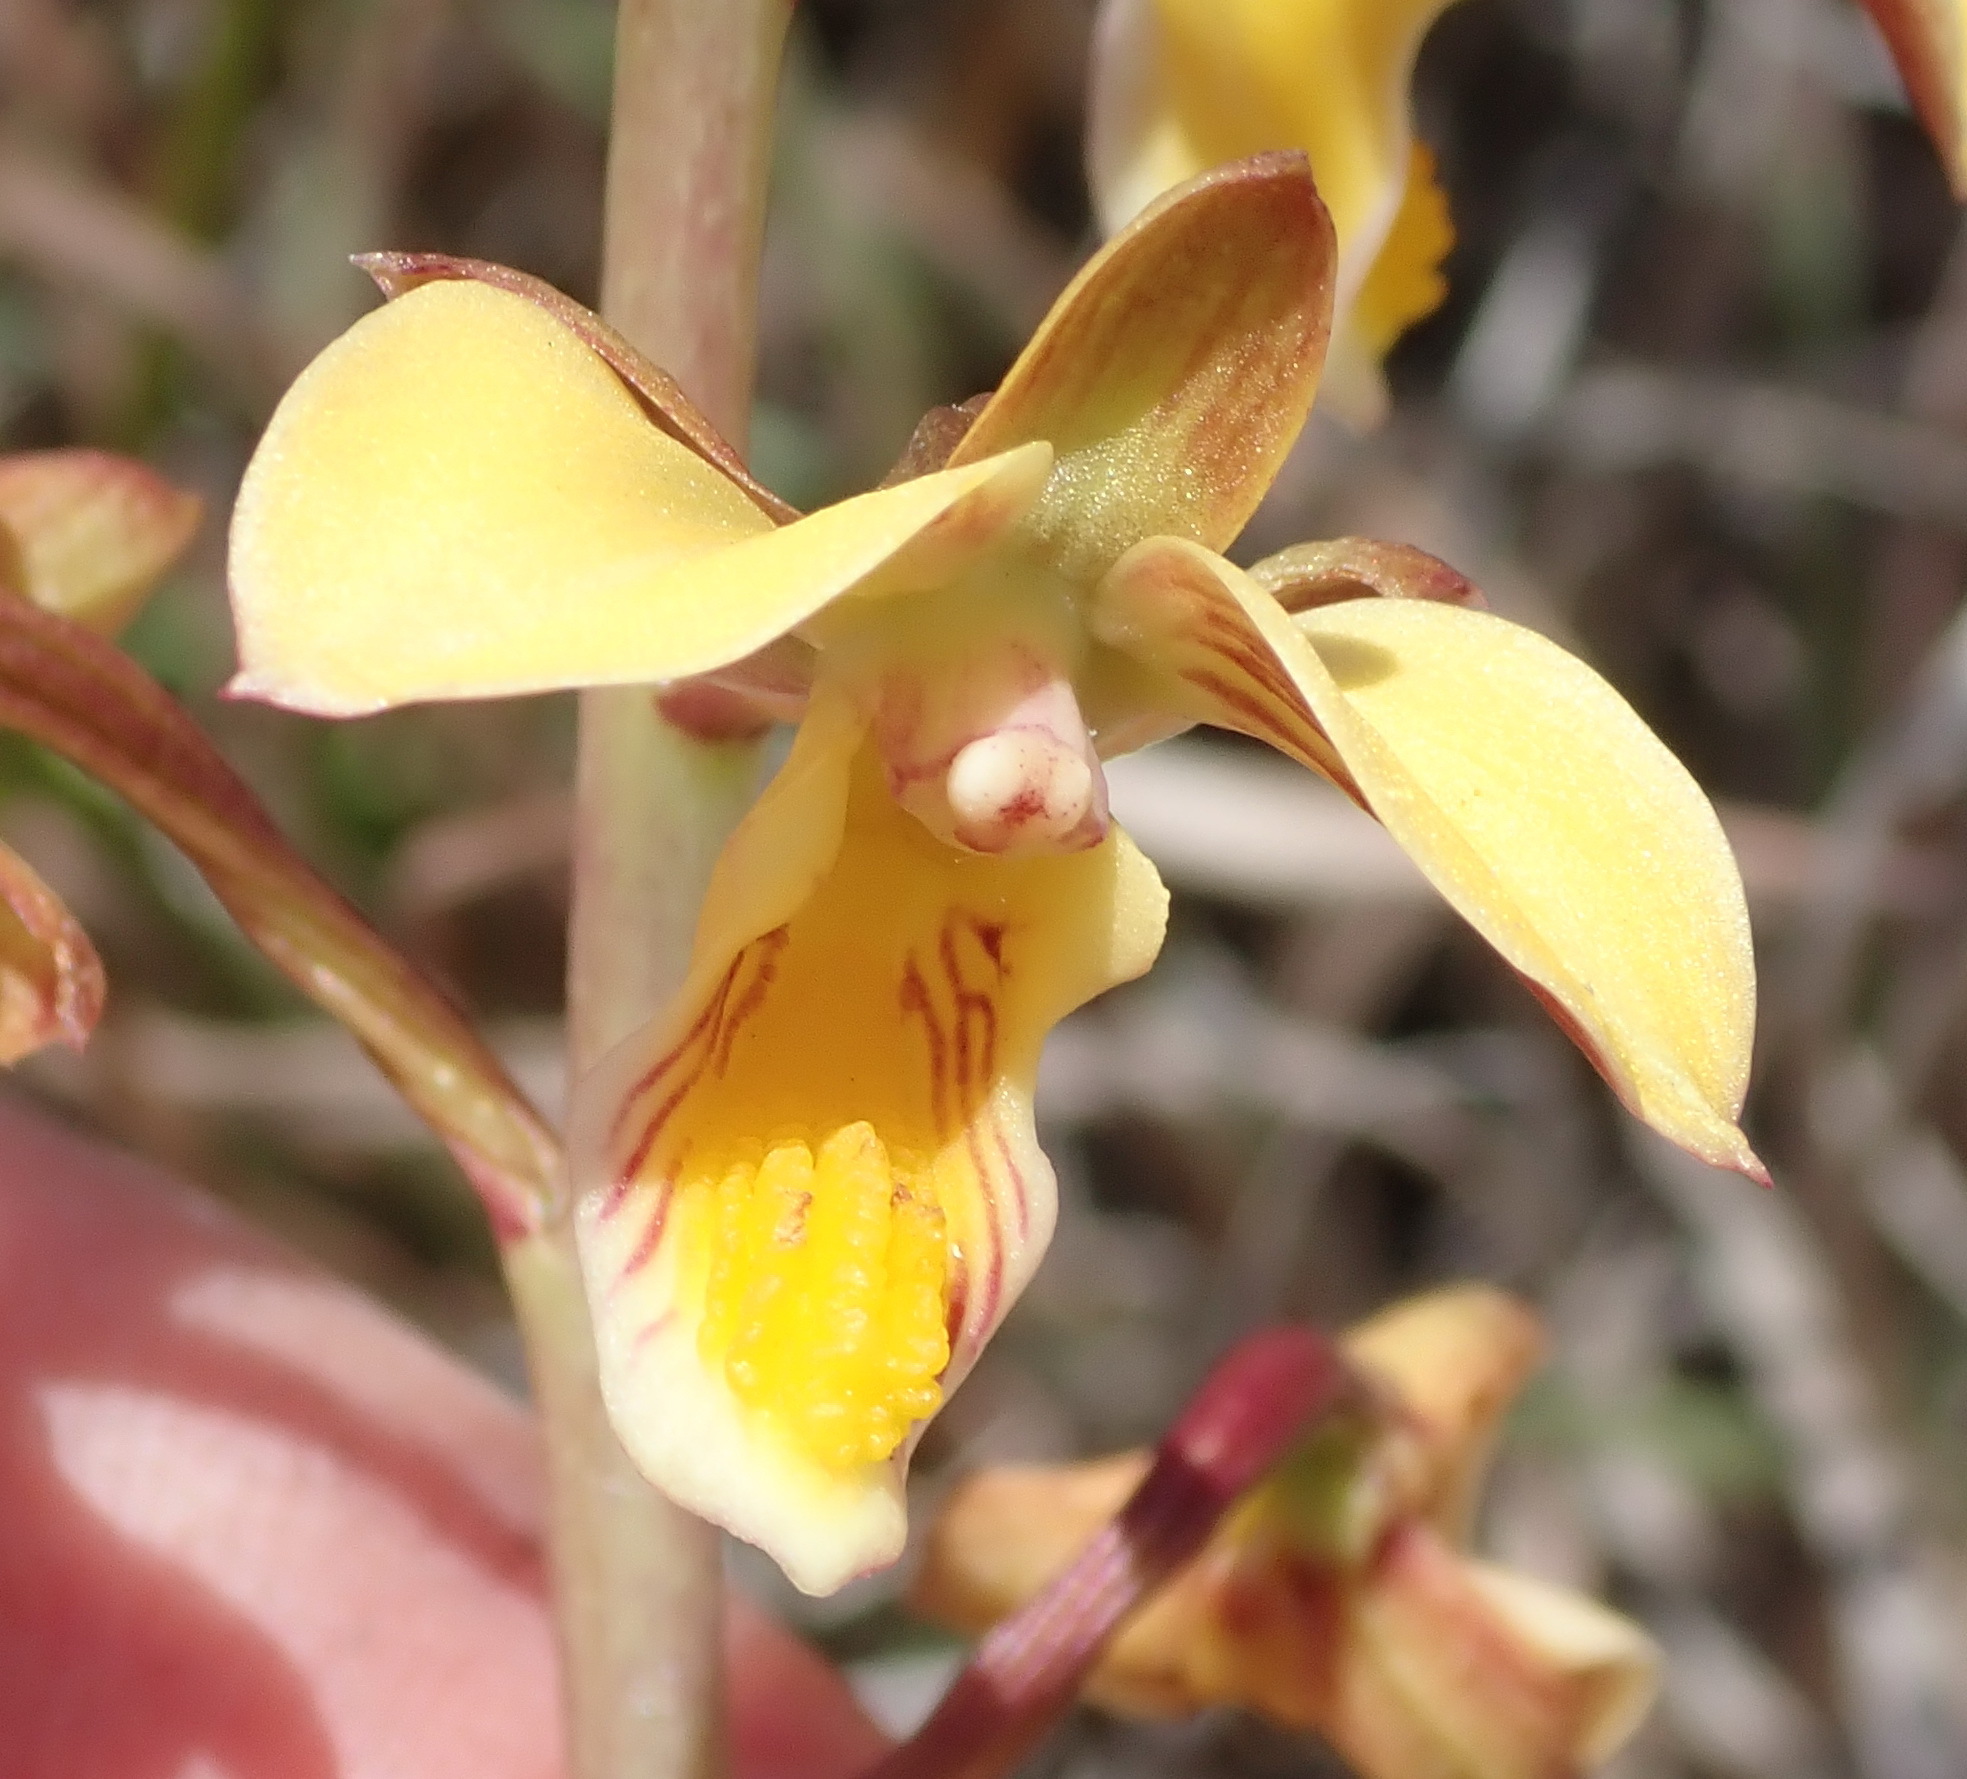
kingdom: Plantae
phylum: Tracheophyta
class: Liliopsida
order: Asparagales
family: Orchidaceae
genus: Eulophia
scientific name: Eulophia tuberculata
